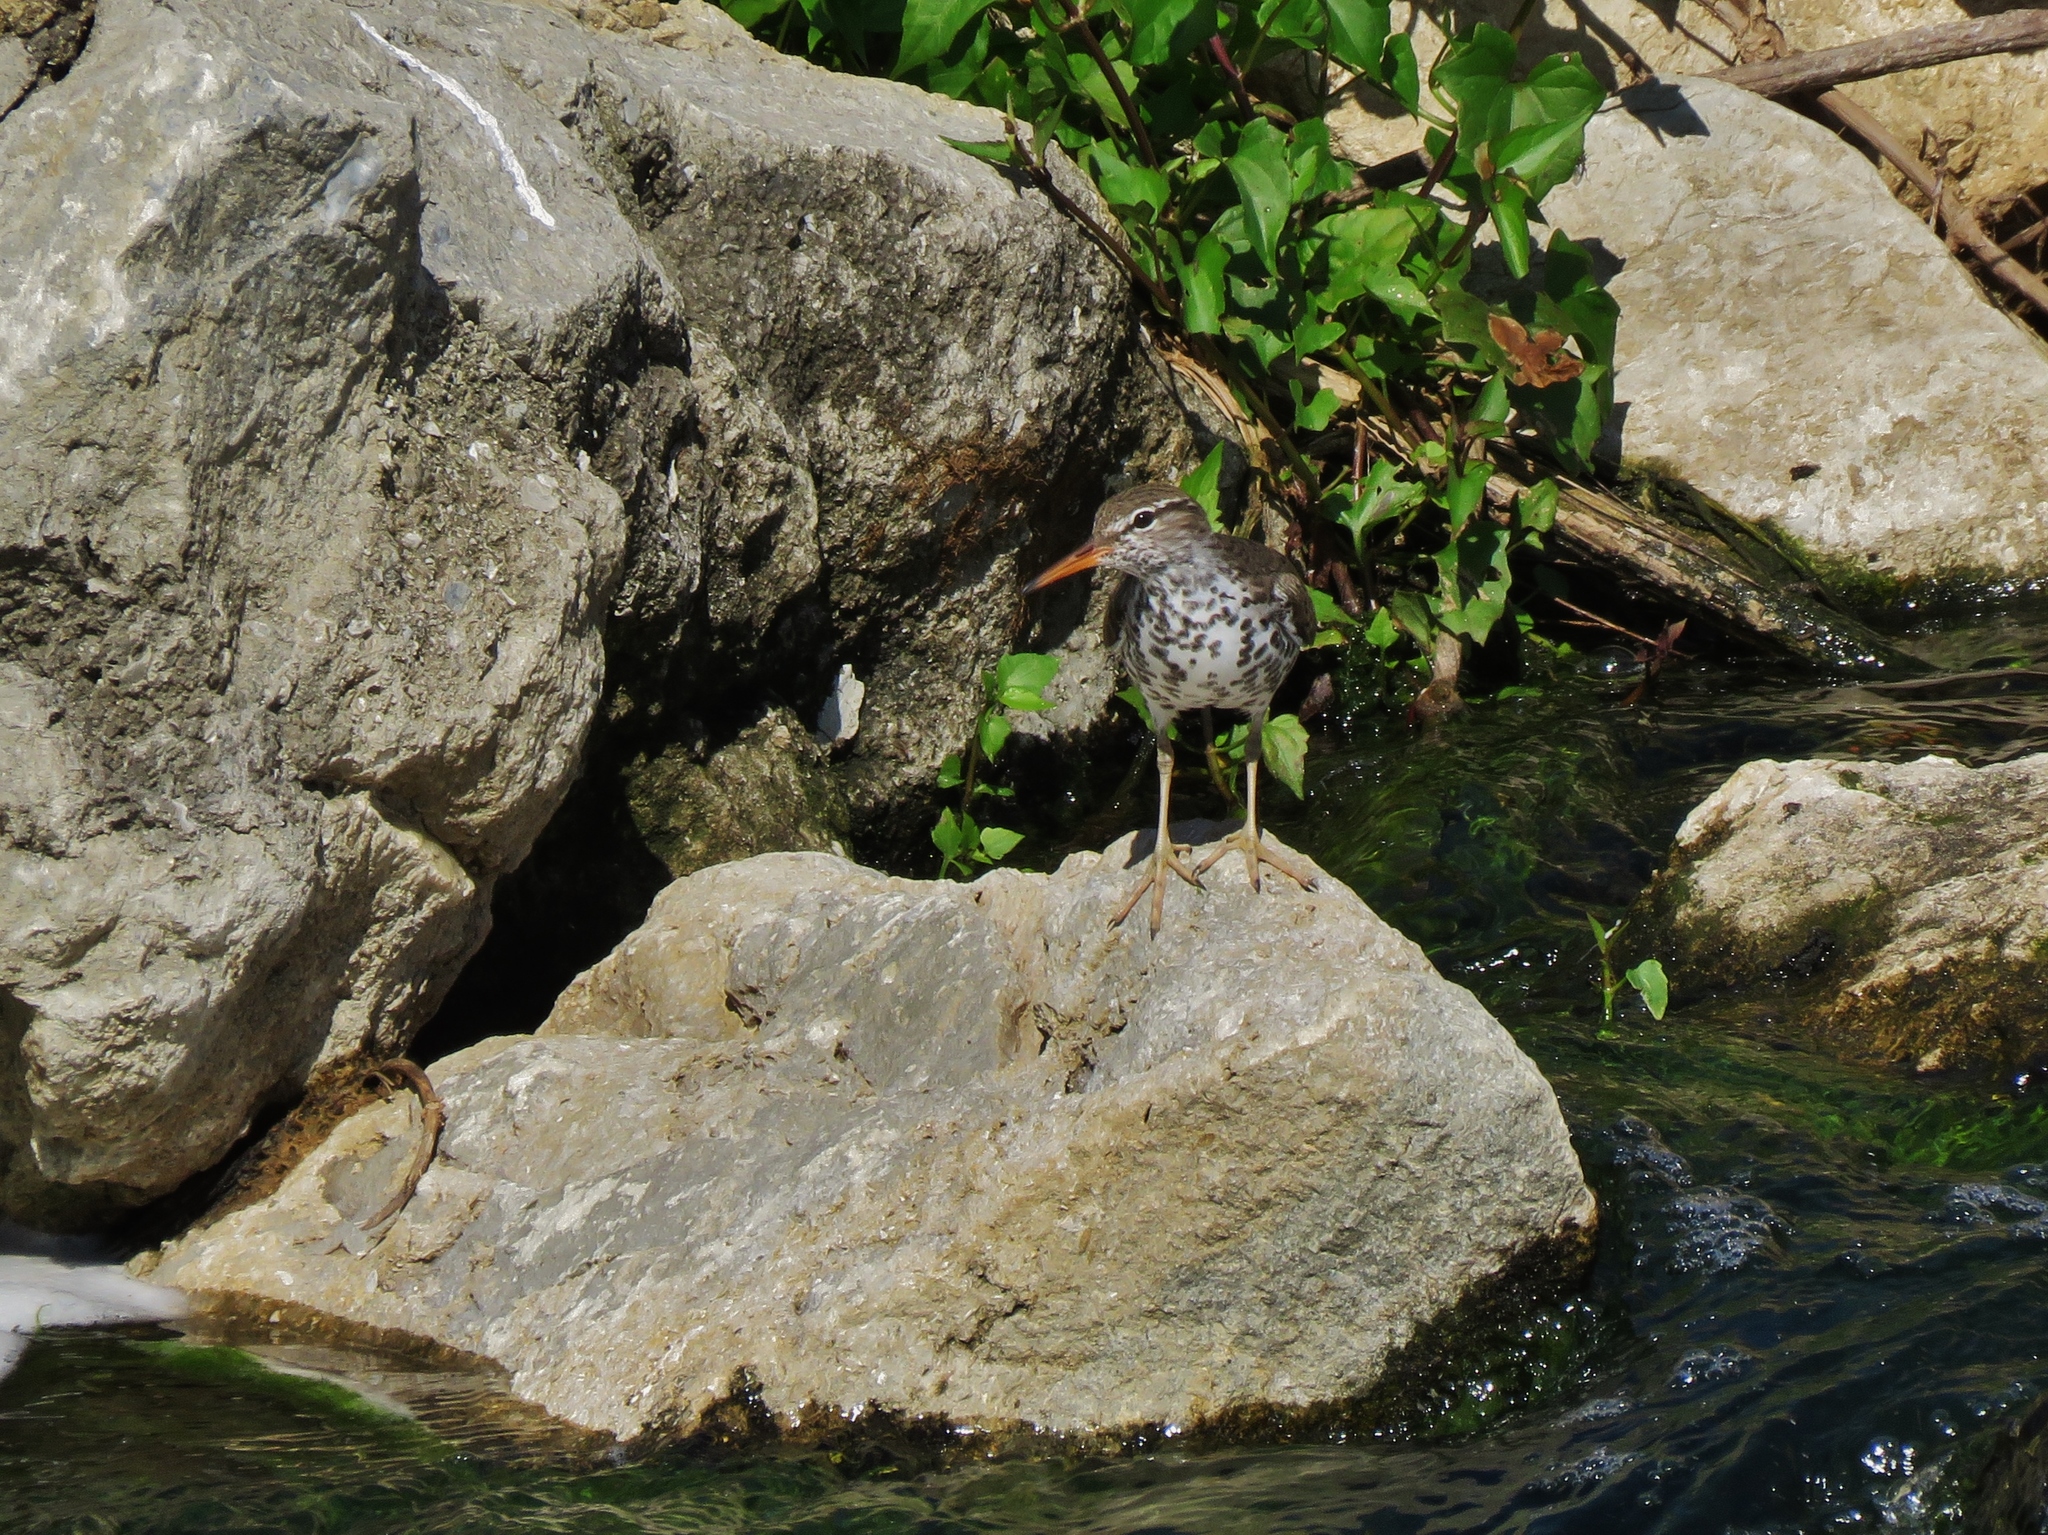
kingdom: Animalia
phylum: Chordata
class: Aves
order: Charadriiformes
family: Scolopacidae
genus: Actitis
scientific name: Actitis macularius
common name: Spotted sandpiper
